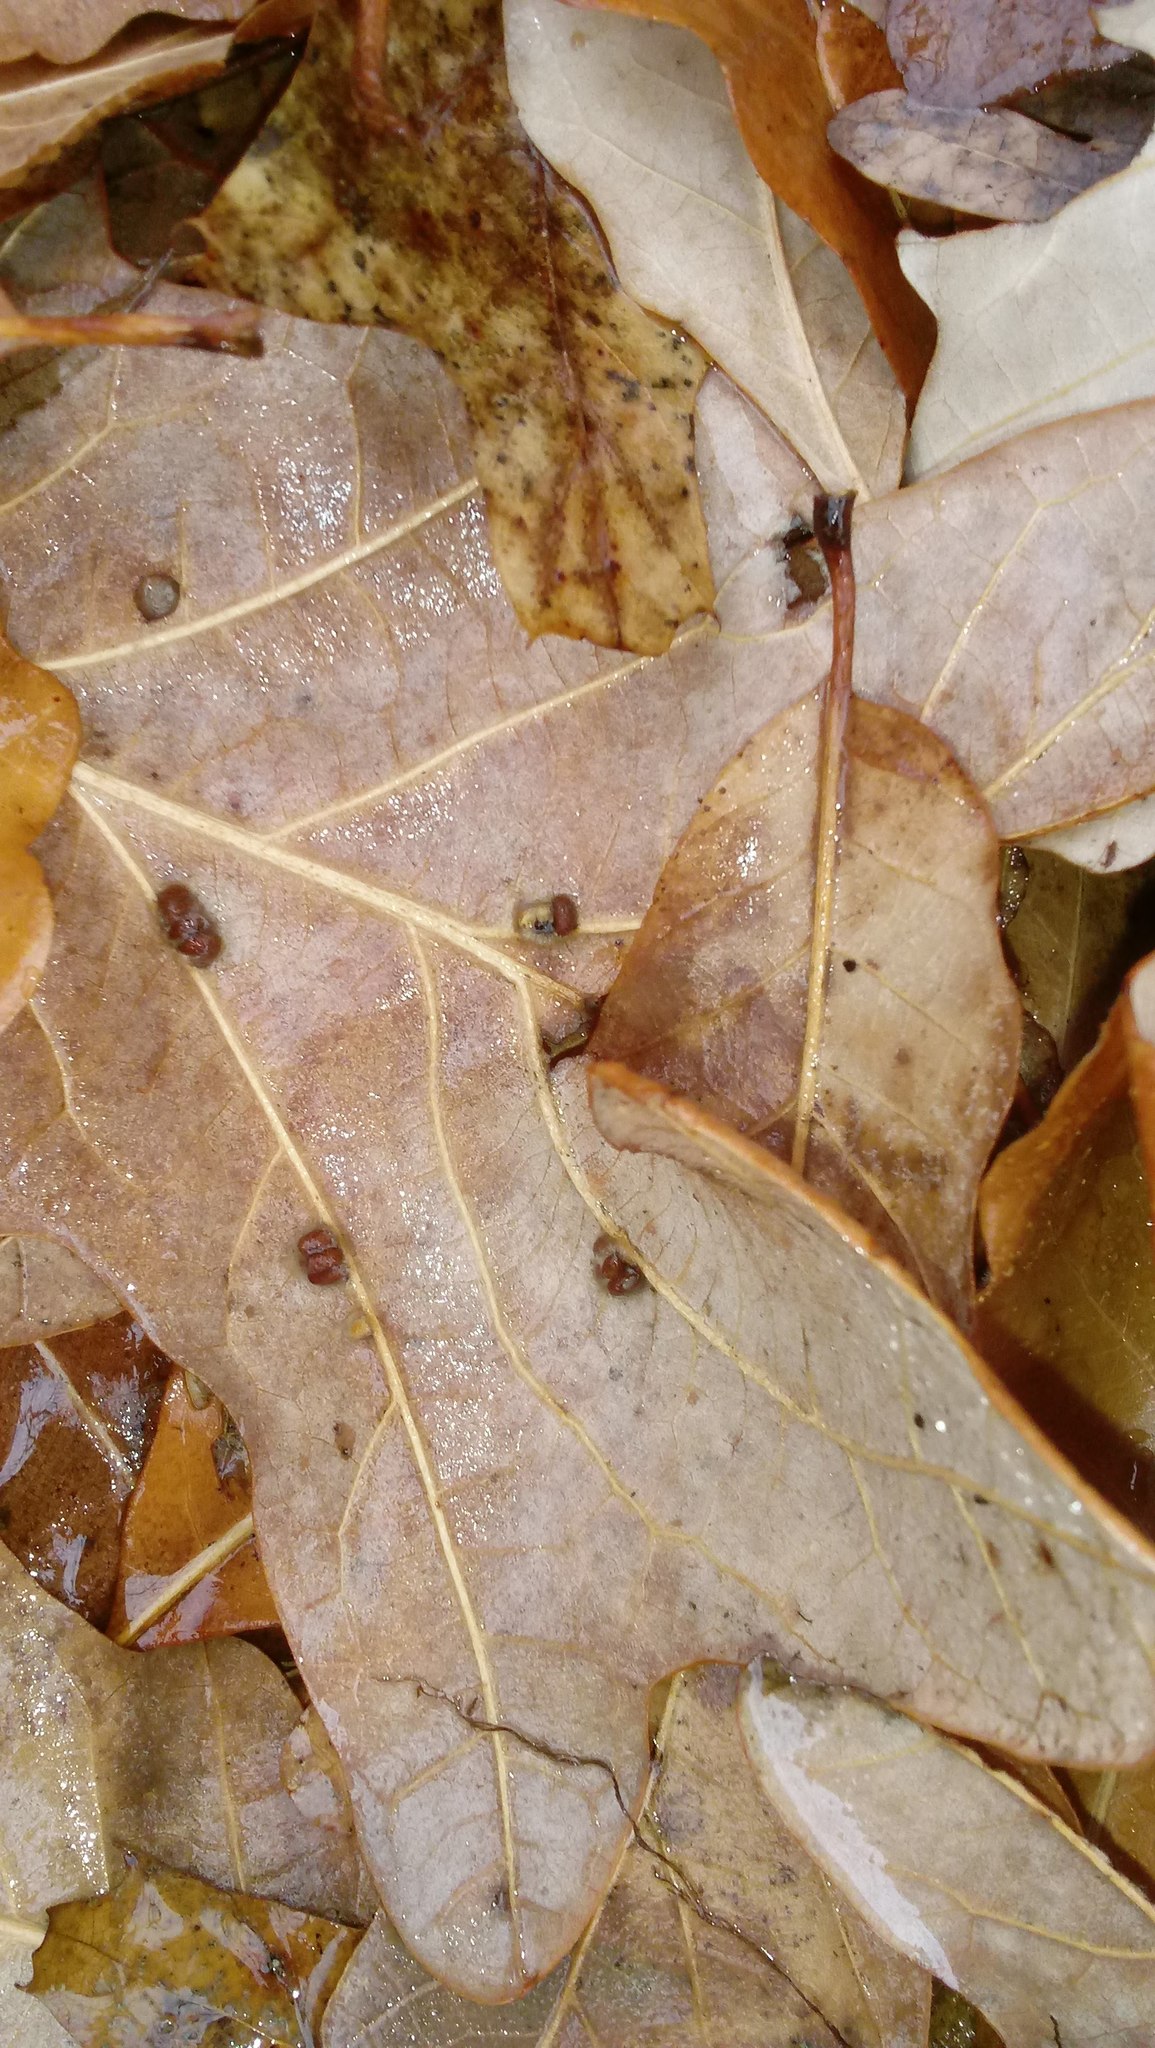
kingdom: Animalia
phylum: Arthropoda
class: Insecta
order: Hymenoptera
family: Cynipidae
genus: Andricus
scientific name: Andricus Druon ignotum
